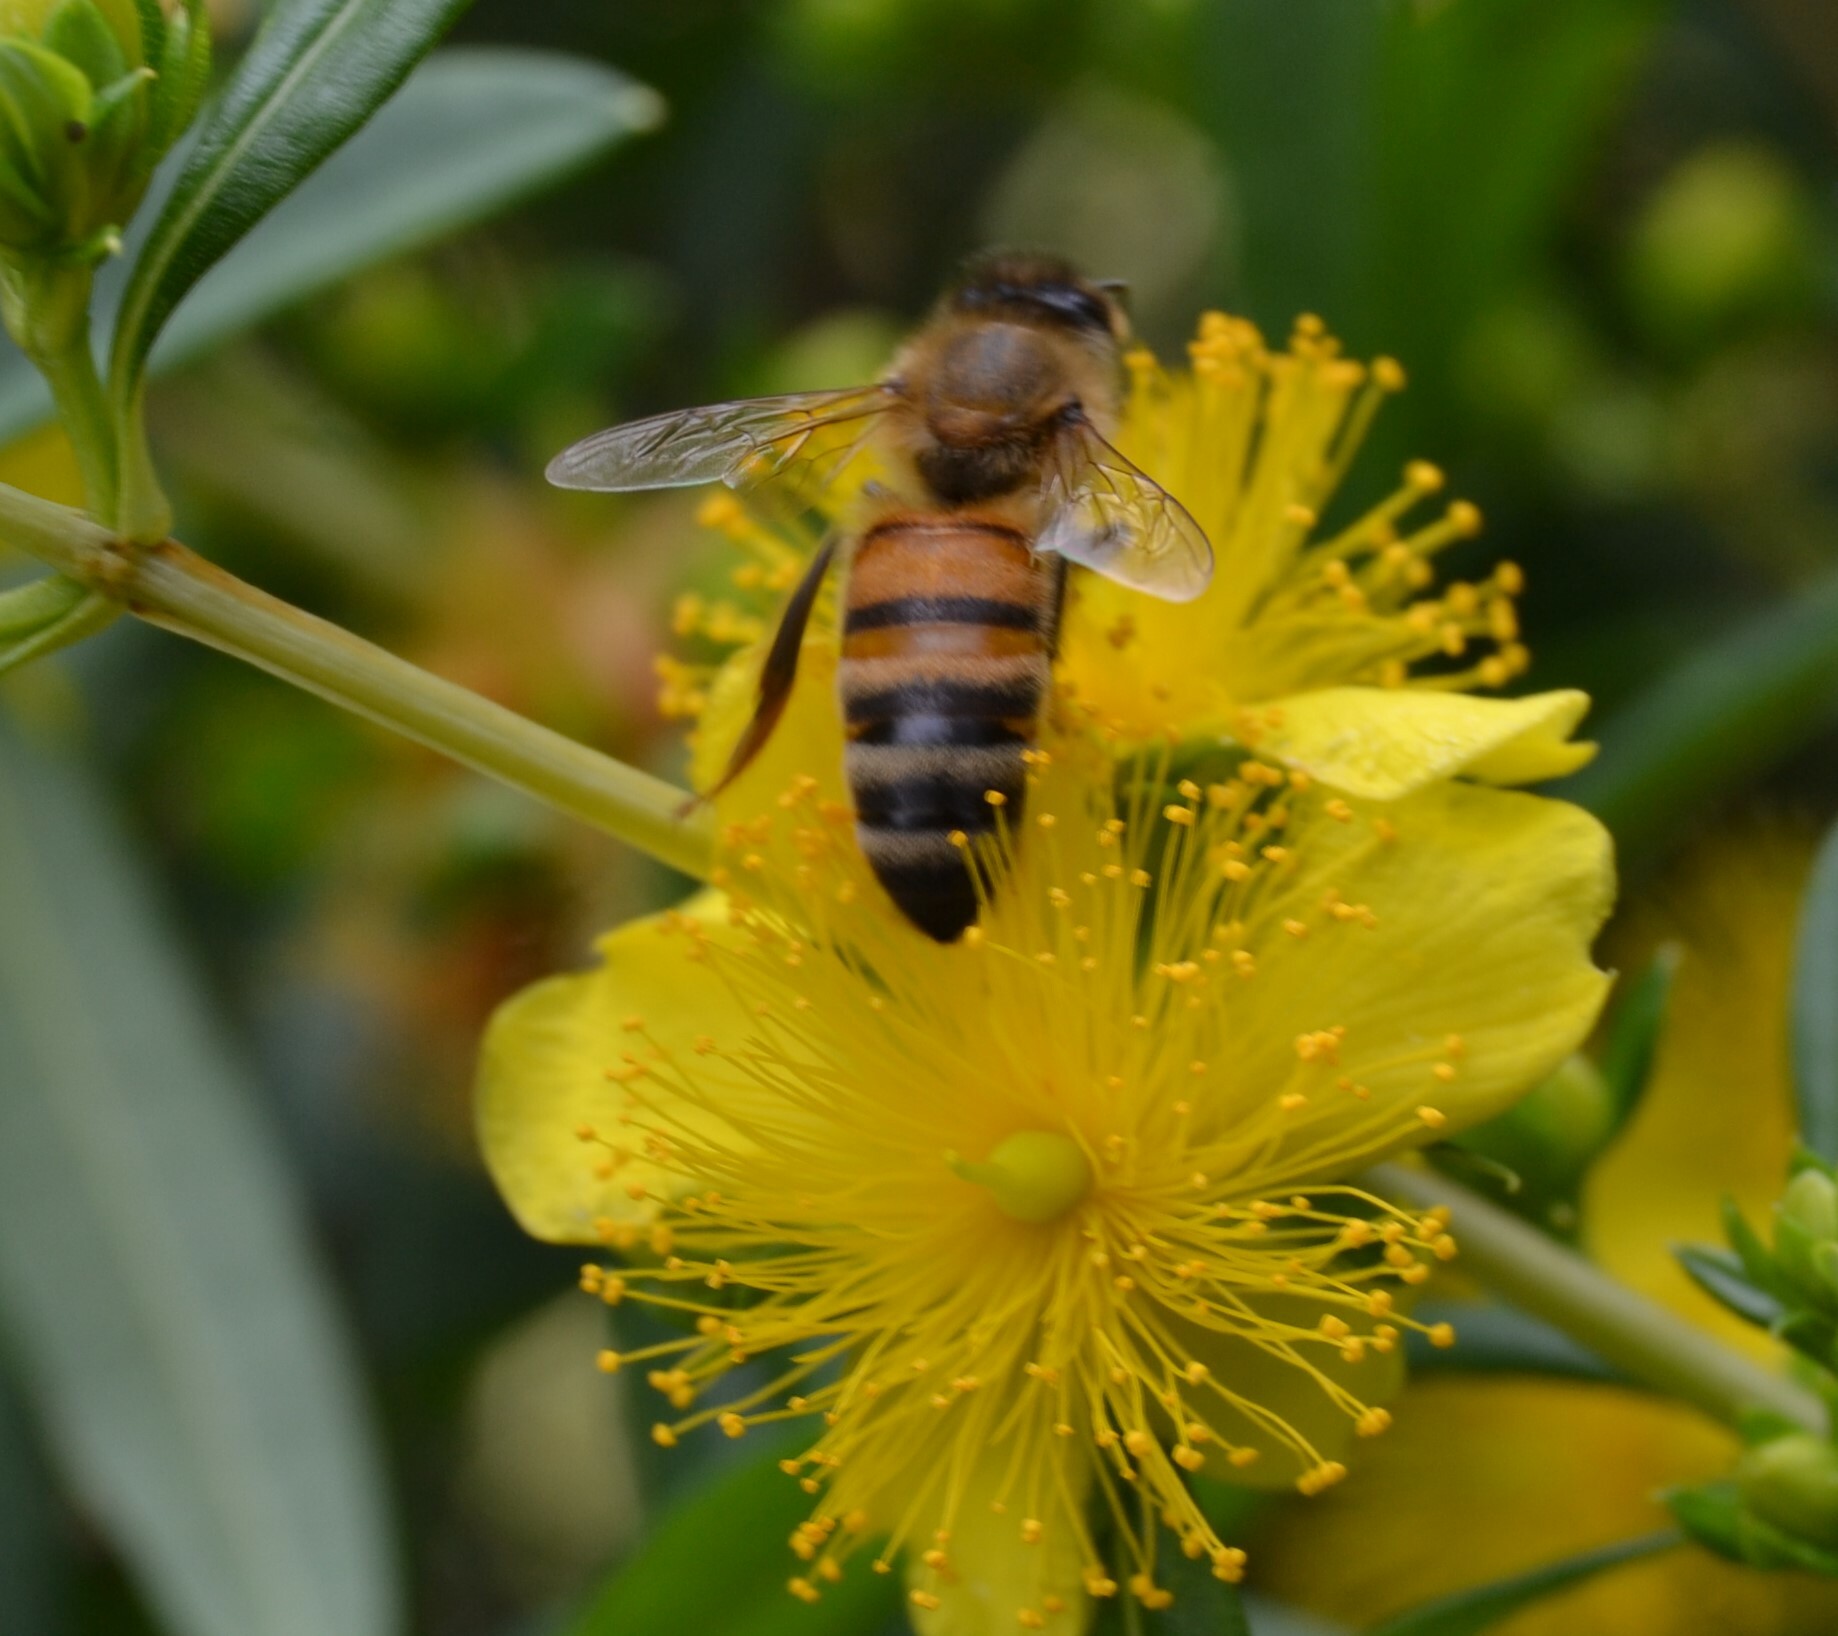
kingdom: Animalia
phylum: Arthropoda
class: Insecta
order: Hymenoptera
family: Apidae
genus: Apis
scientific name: Apis mellifera
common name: Honey bee
